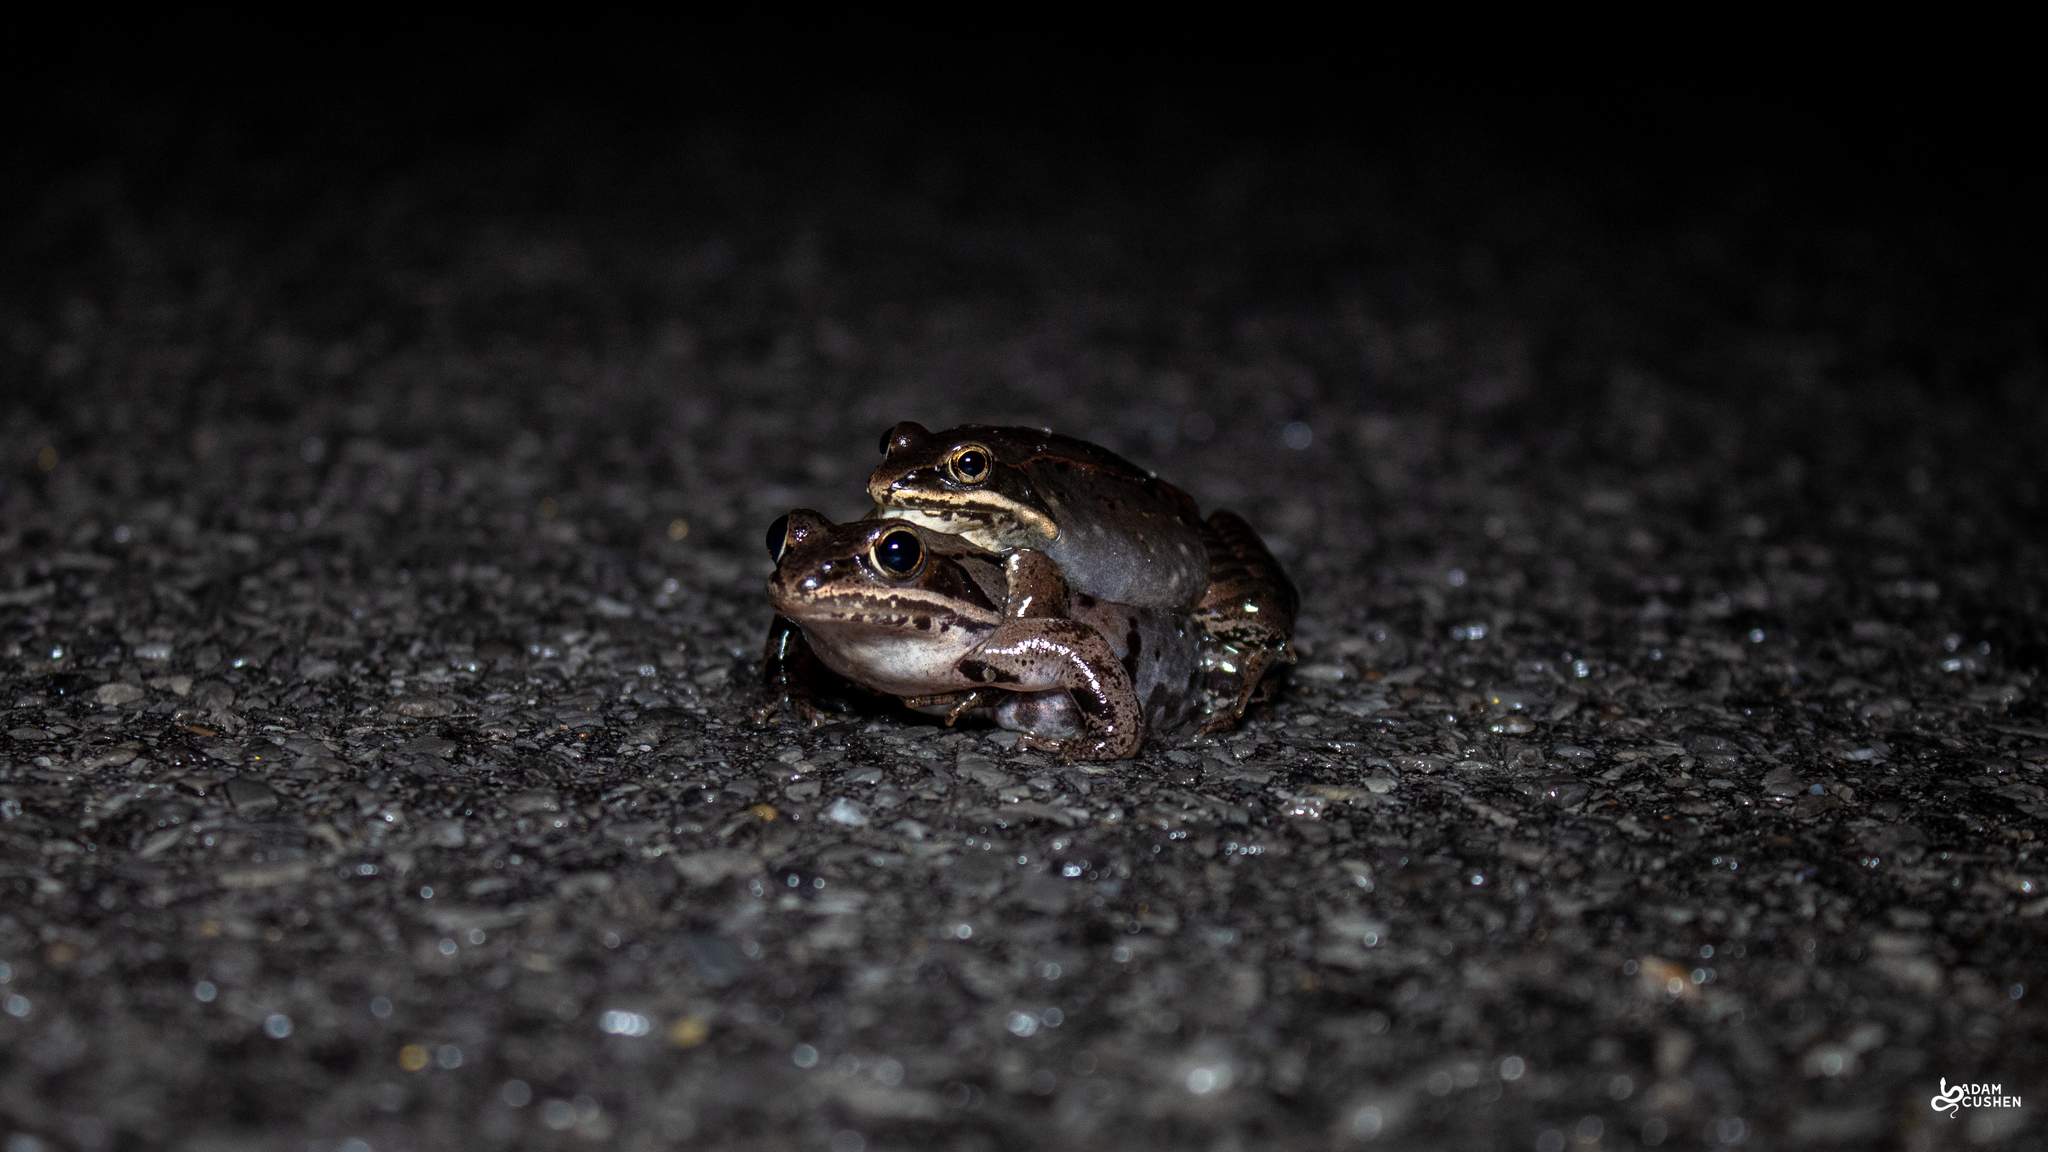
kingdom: Animalia
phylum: Chordata
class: Amphibia
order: Anura
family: Ranidae
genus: Lithobates
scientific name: Lithobates sylvaticus
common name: Wood frog
